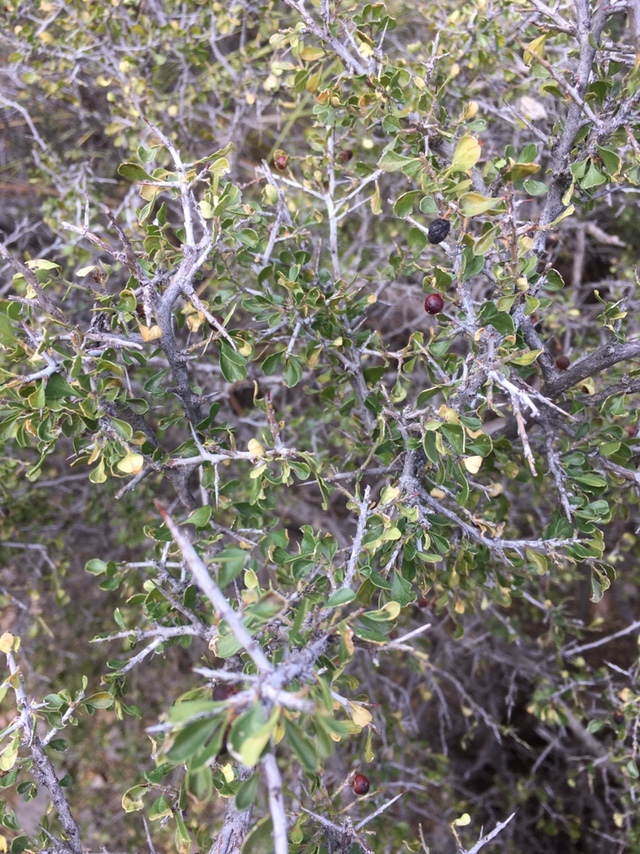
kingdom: Plantae
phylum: Tracheophyta
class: Magnoliopsida
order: Rosales
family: Rhamnaceae
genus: Condalia
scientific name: Condalia viridis
